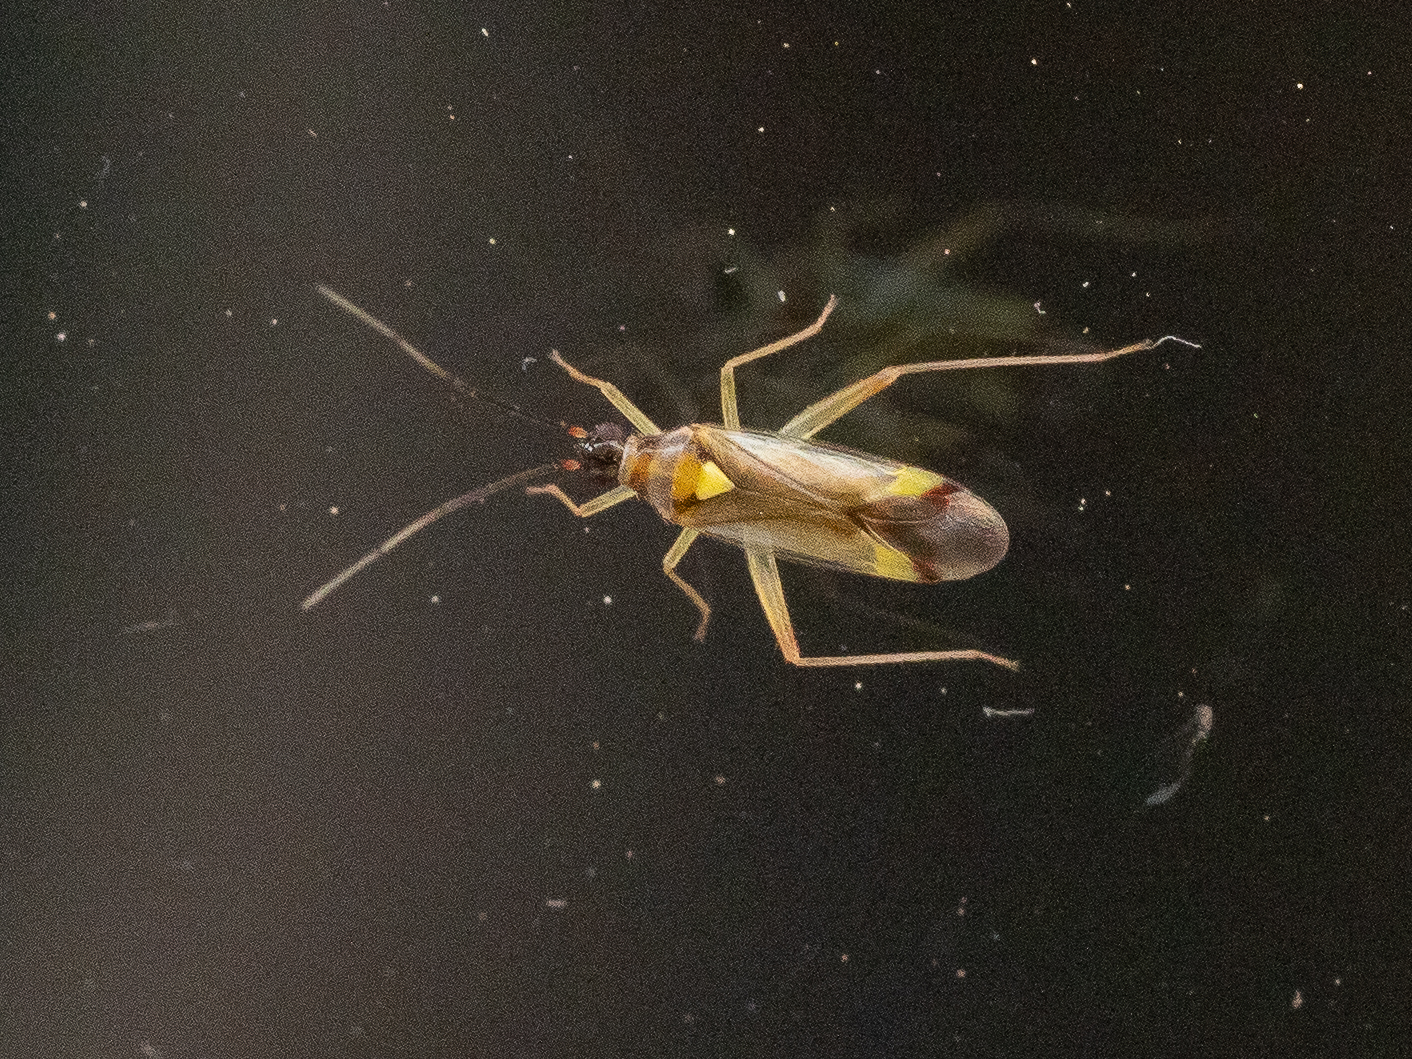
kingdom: Animalia
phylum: Arthropoda
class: Insecta
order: Hemiptera
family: Miridae
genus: Campyloneura
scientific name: Campyloneura virgula
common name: Predatory bug
